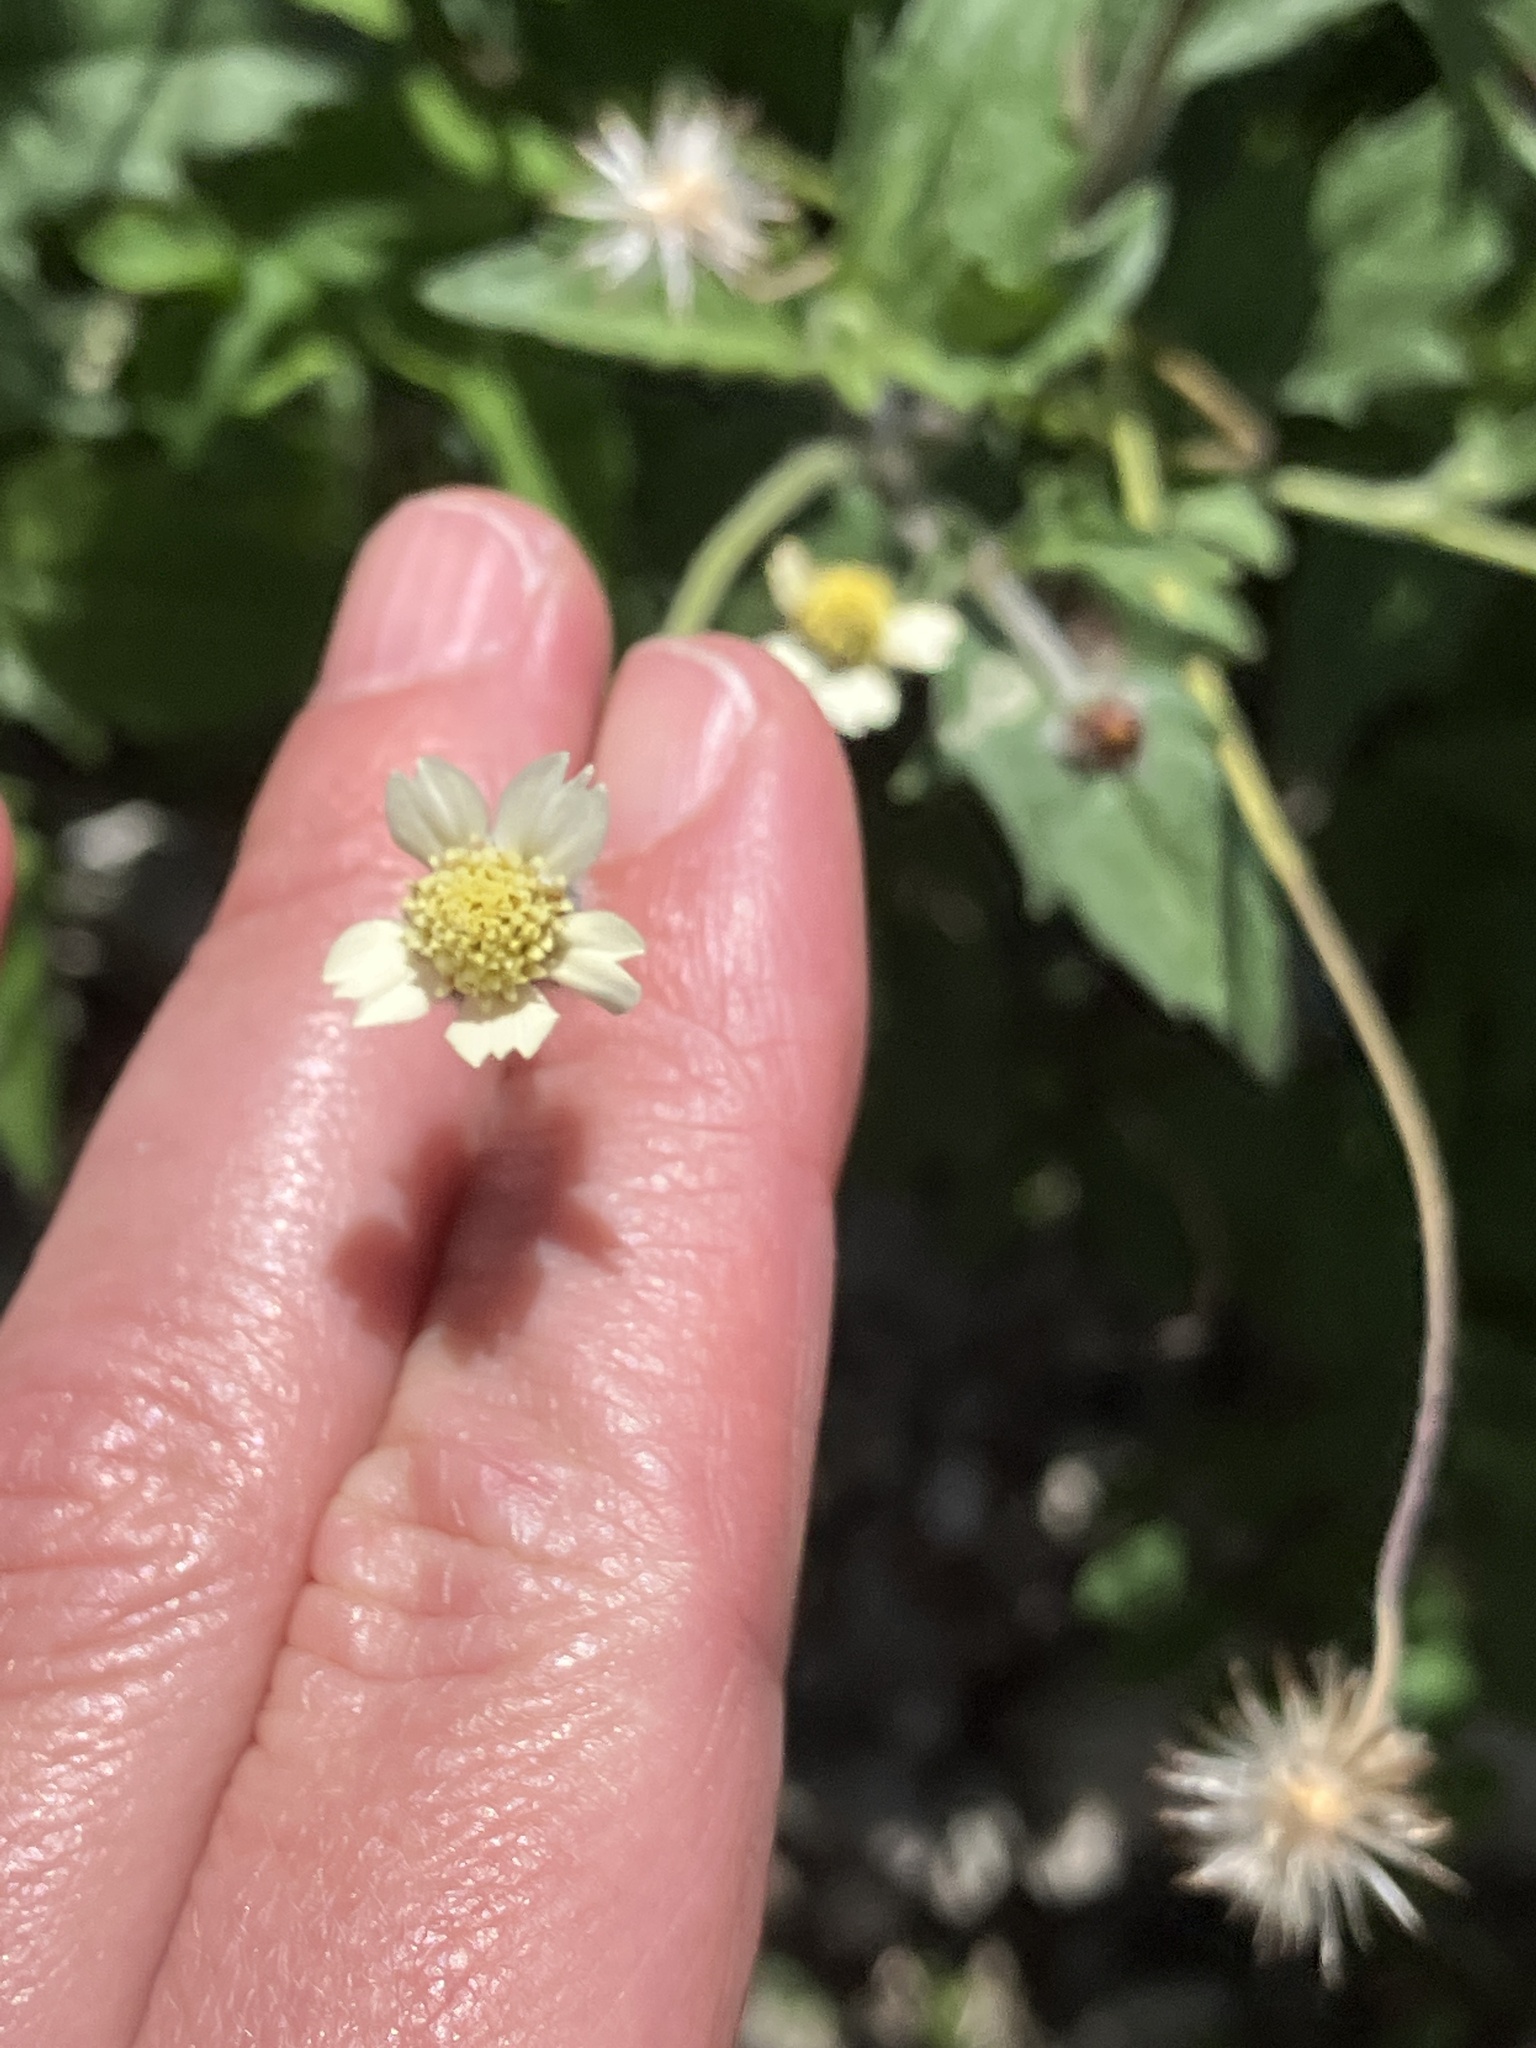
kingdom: Plantae
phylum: Tracheophyta
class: Magnoliopsida
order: Asterales
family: Asteraceae
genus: Tridax
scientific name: Tridax procumbens
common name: Coatbuttons
